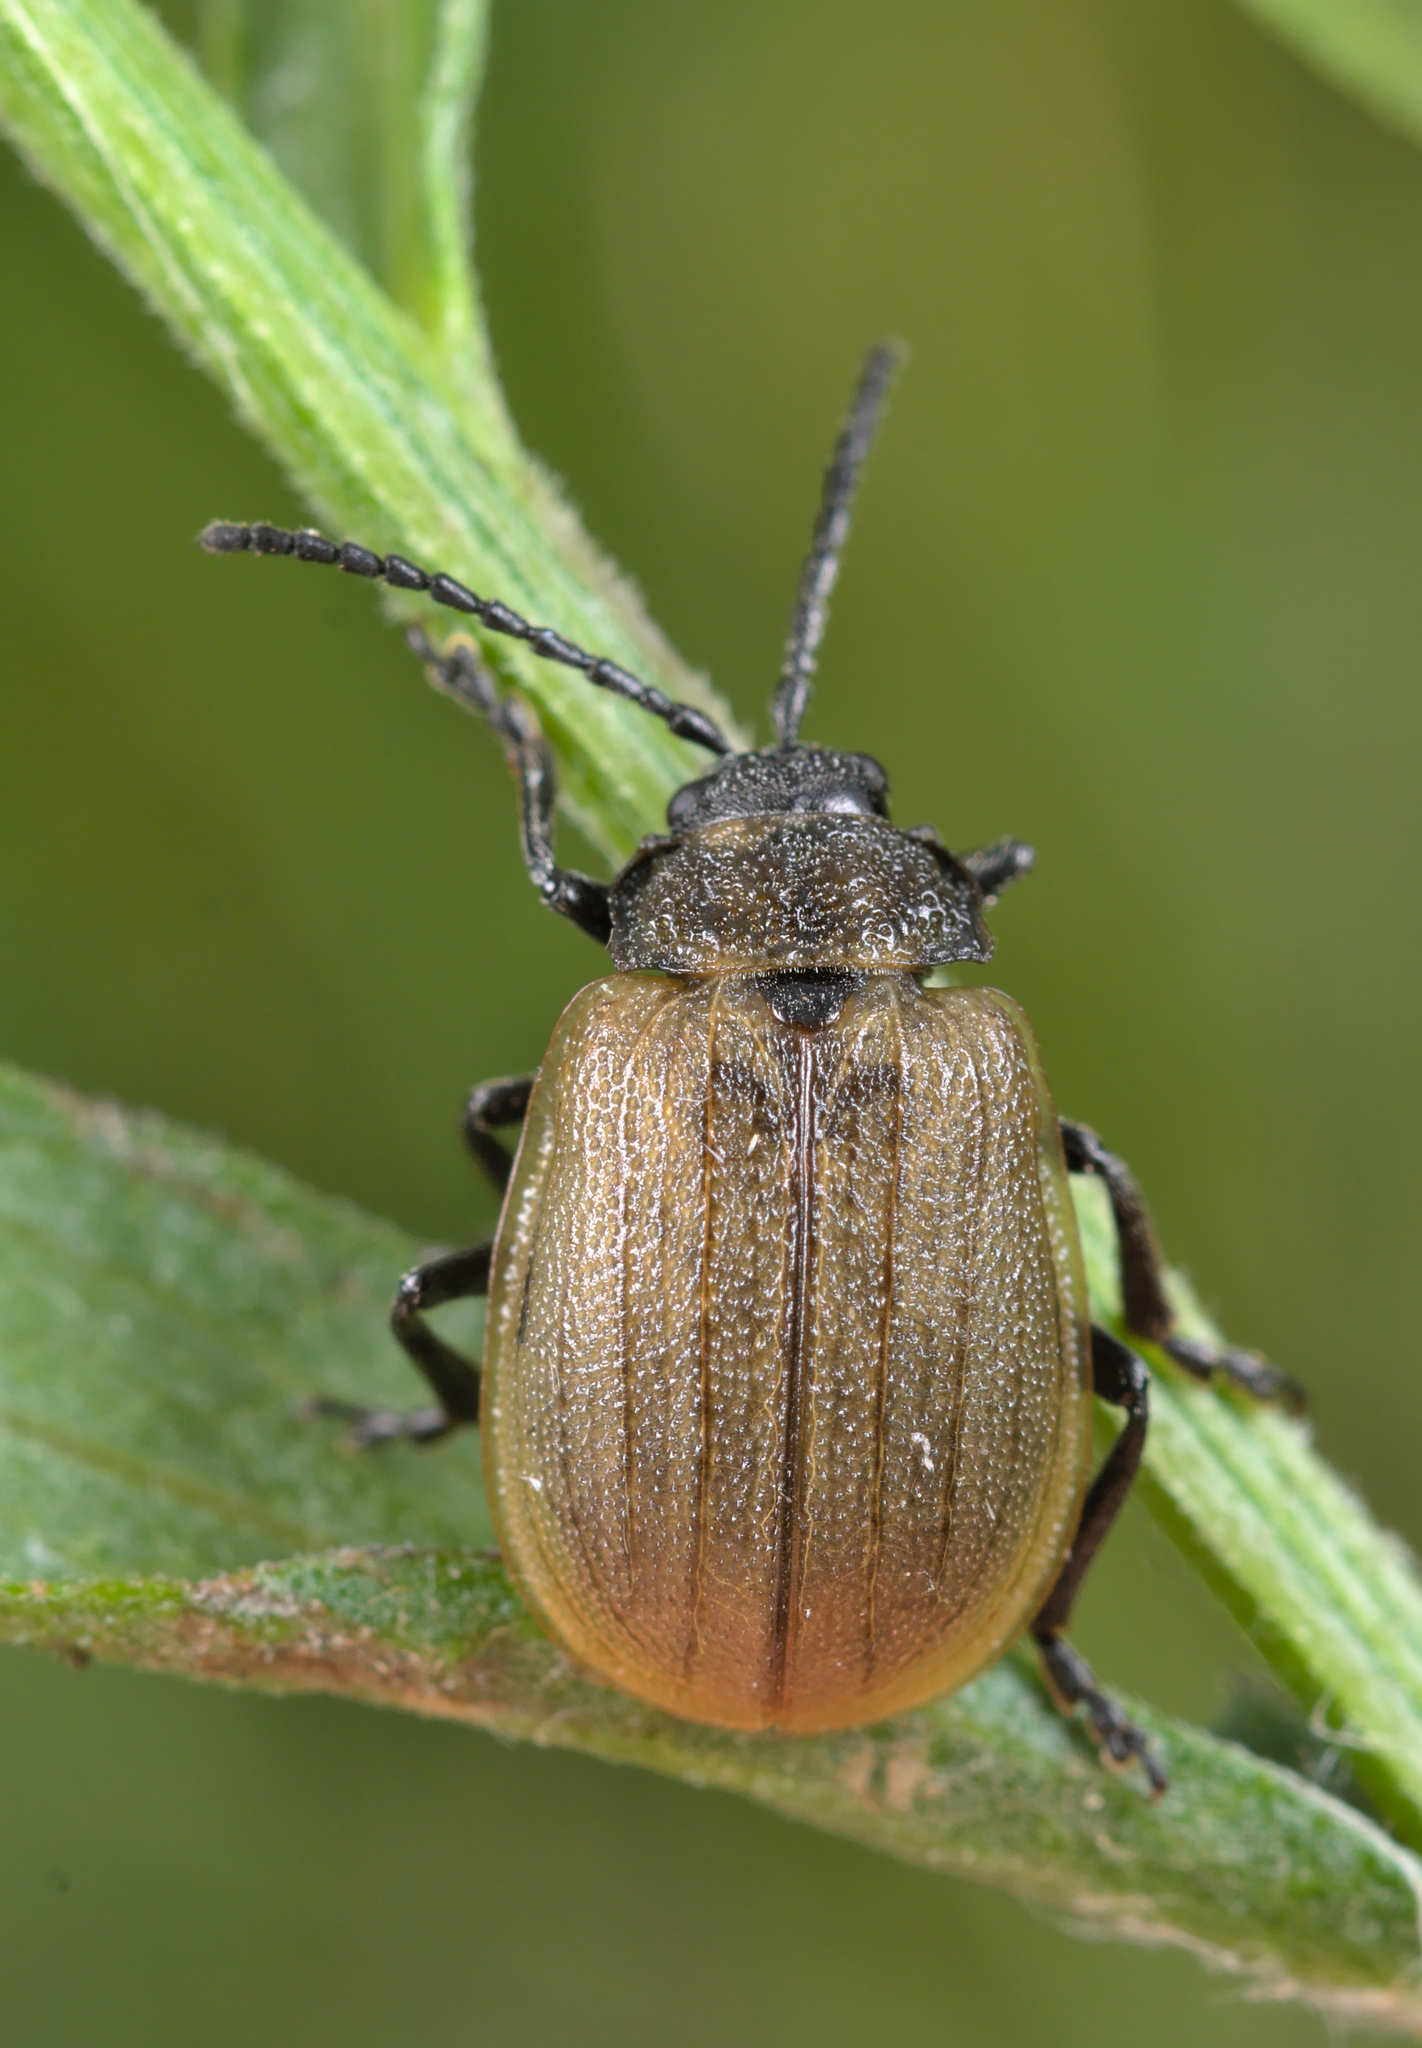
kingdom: Animalia
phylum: Arthropoda
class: Insecta
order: Coleoptera
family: Chrysomelidae
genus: Galeruca
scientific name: Galeruca pomonae
